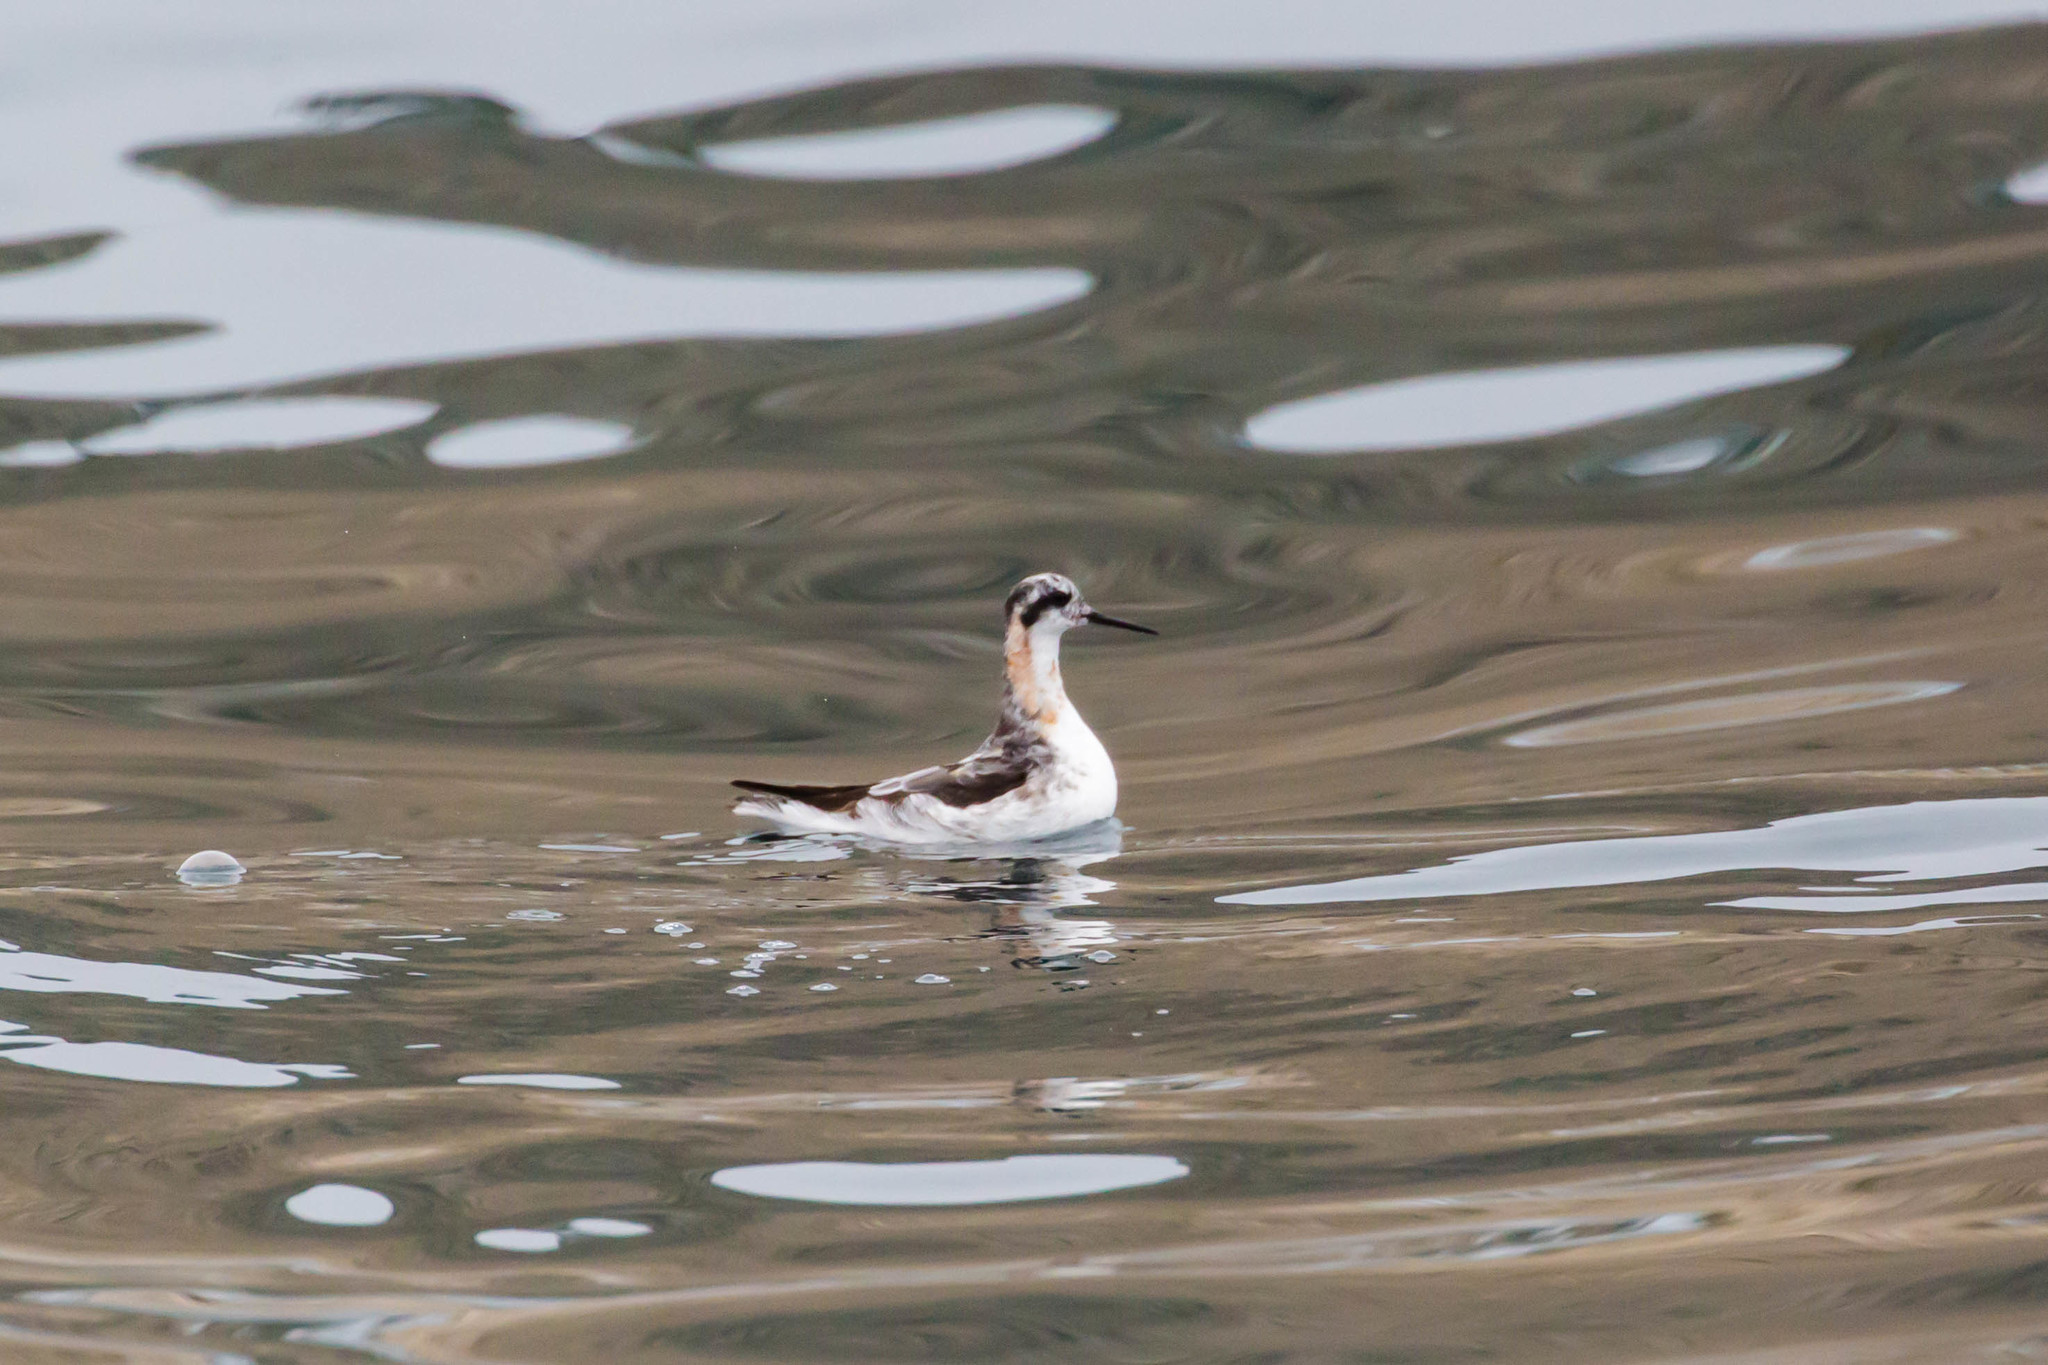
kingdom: Animalia
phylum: Chordata
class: Aves
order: Charadriiformes
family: Scolopacidae
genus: Phalaropus
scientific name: Phalaropus lobatus
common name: Red-necked phalarope
